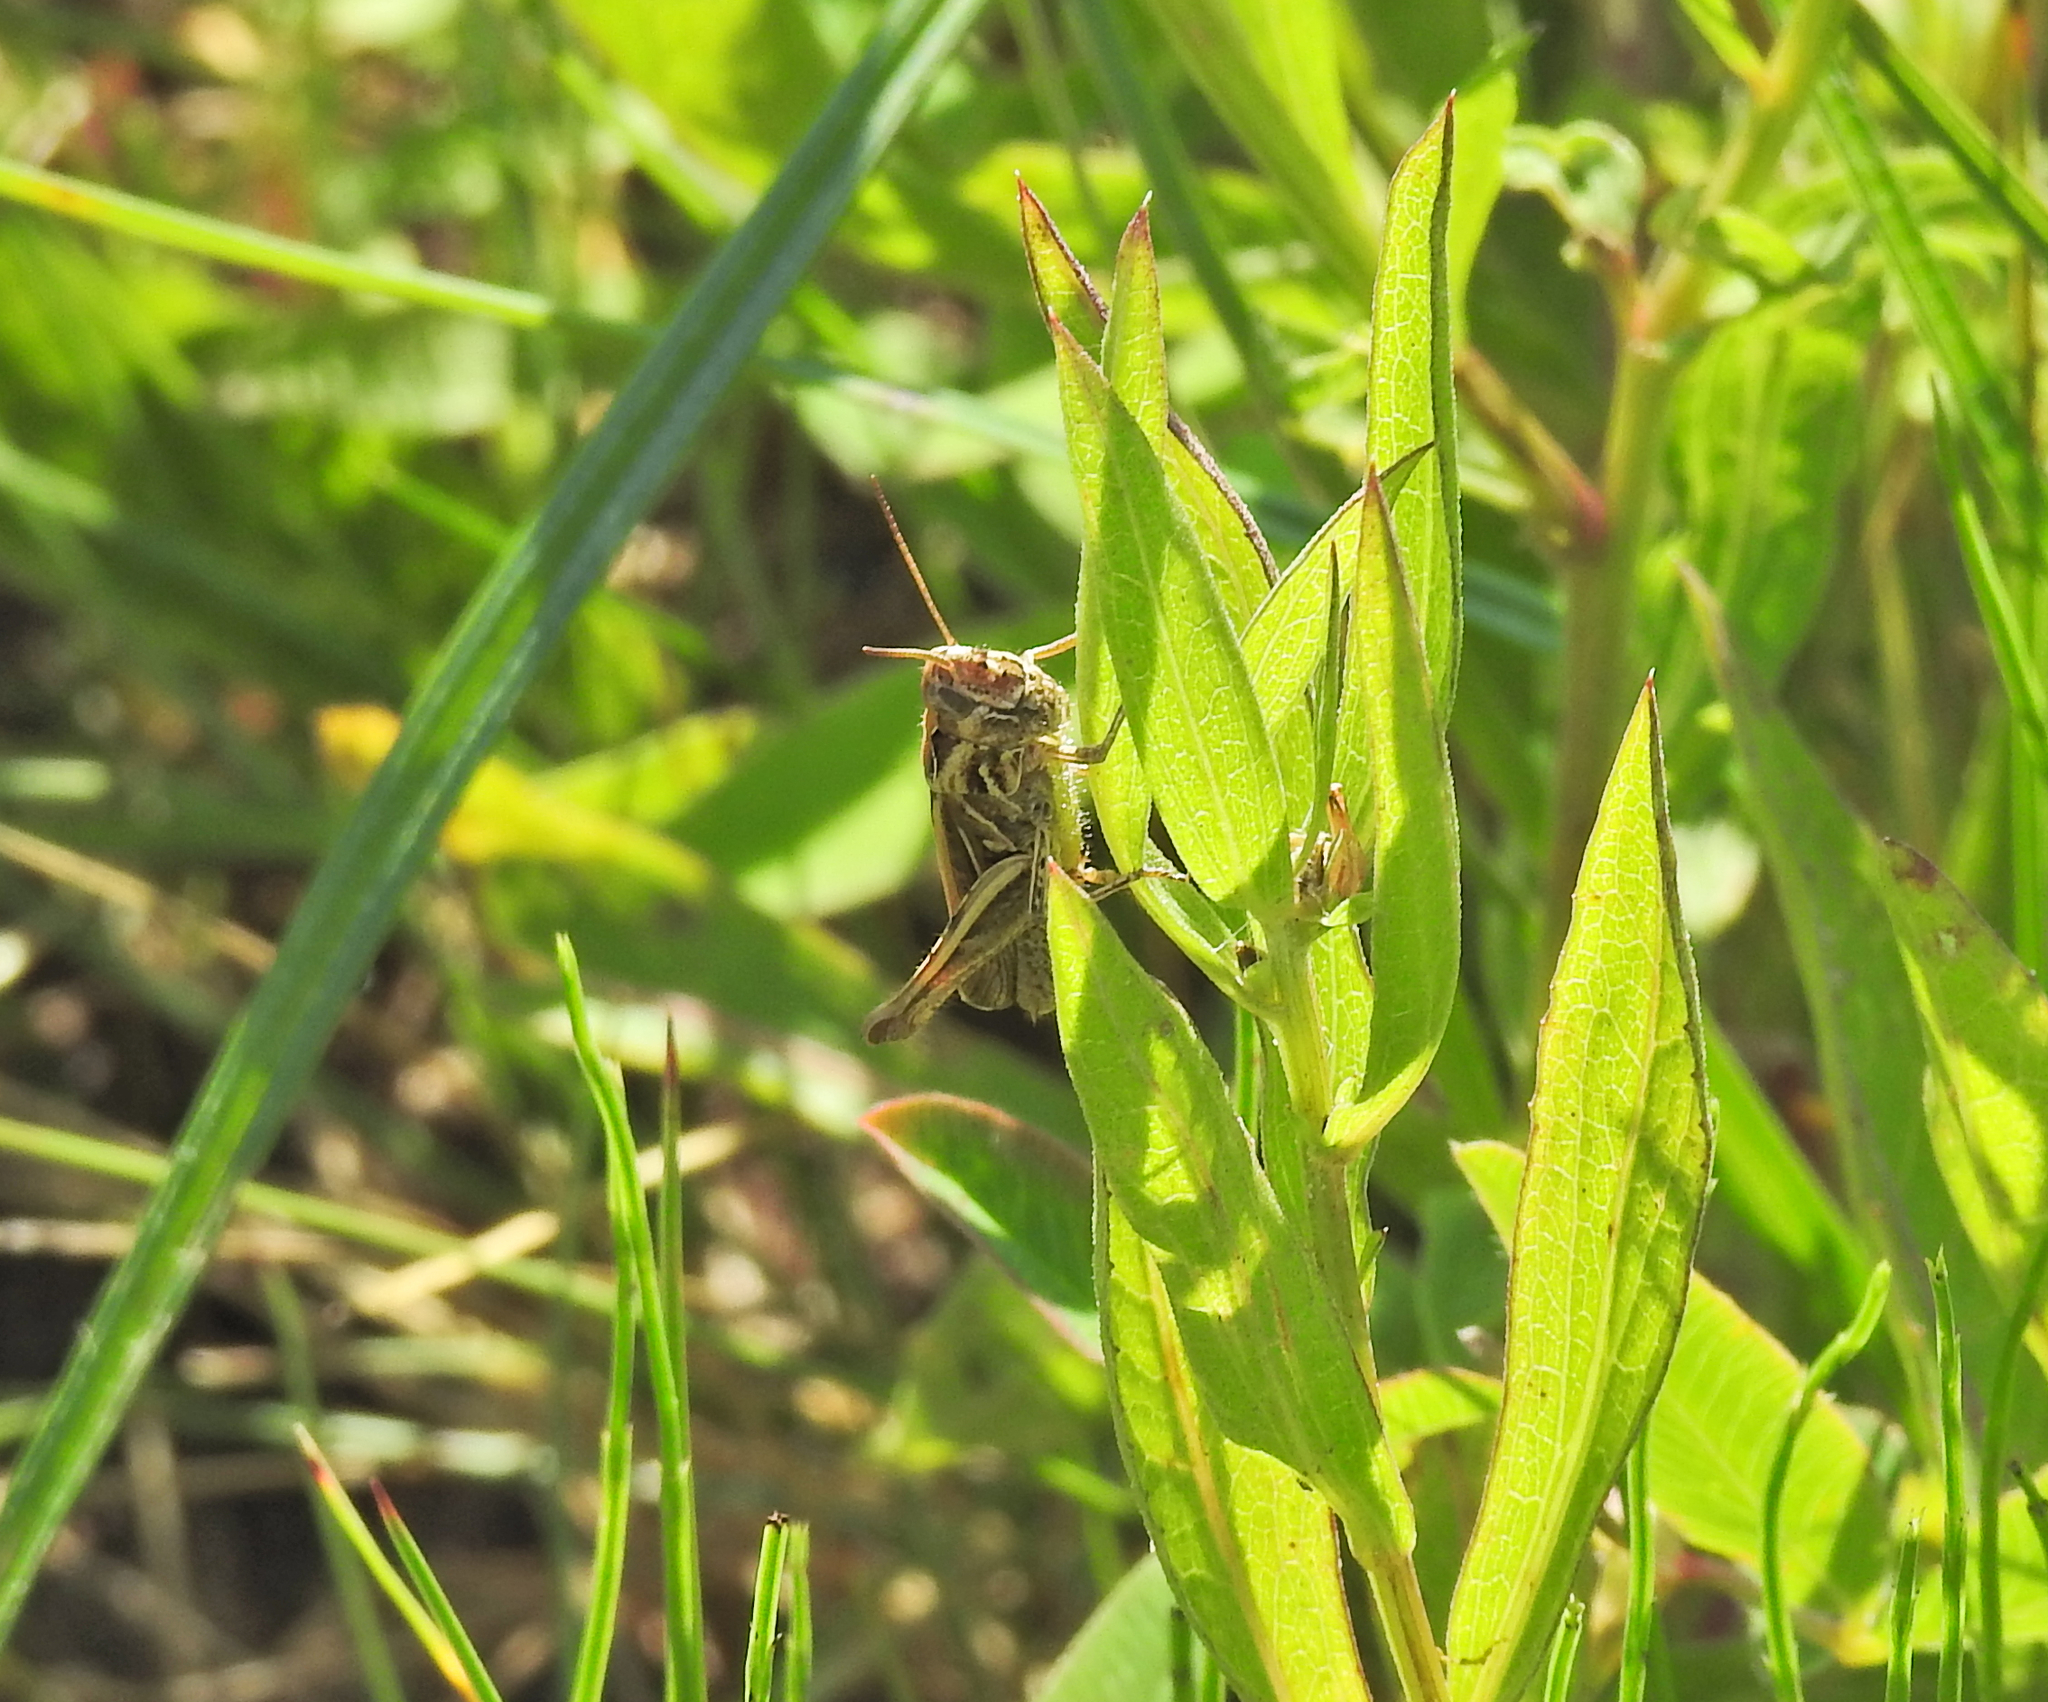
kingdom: Animalia
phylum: Arthropoda
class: Insecta
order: Orthoptera
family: Acrididae
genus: Glyptobothrus
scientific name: Glyptobothrus
